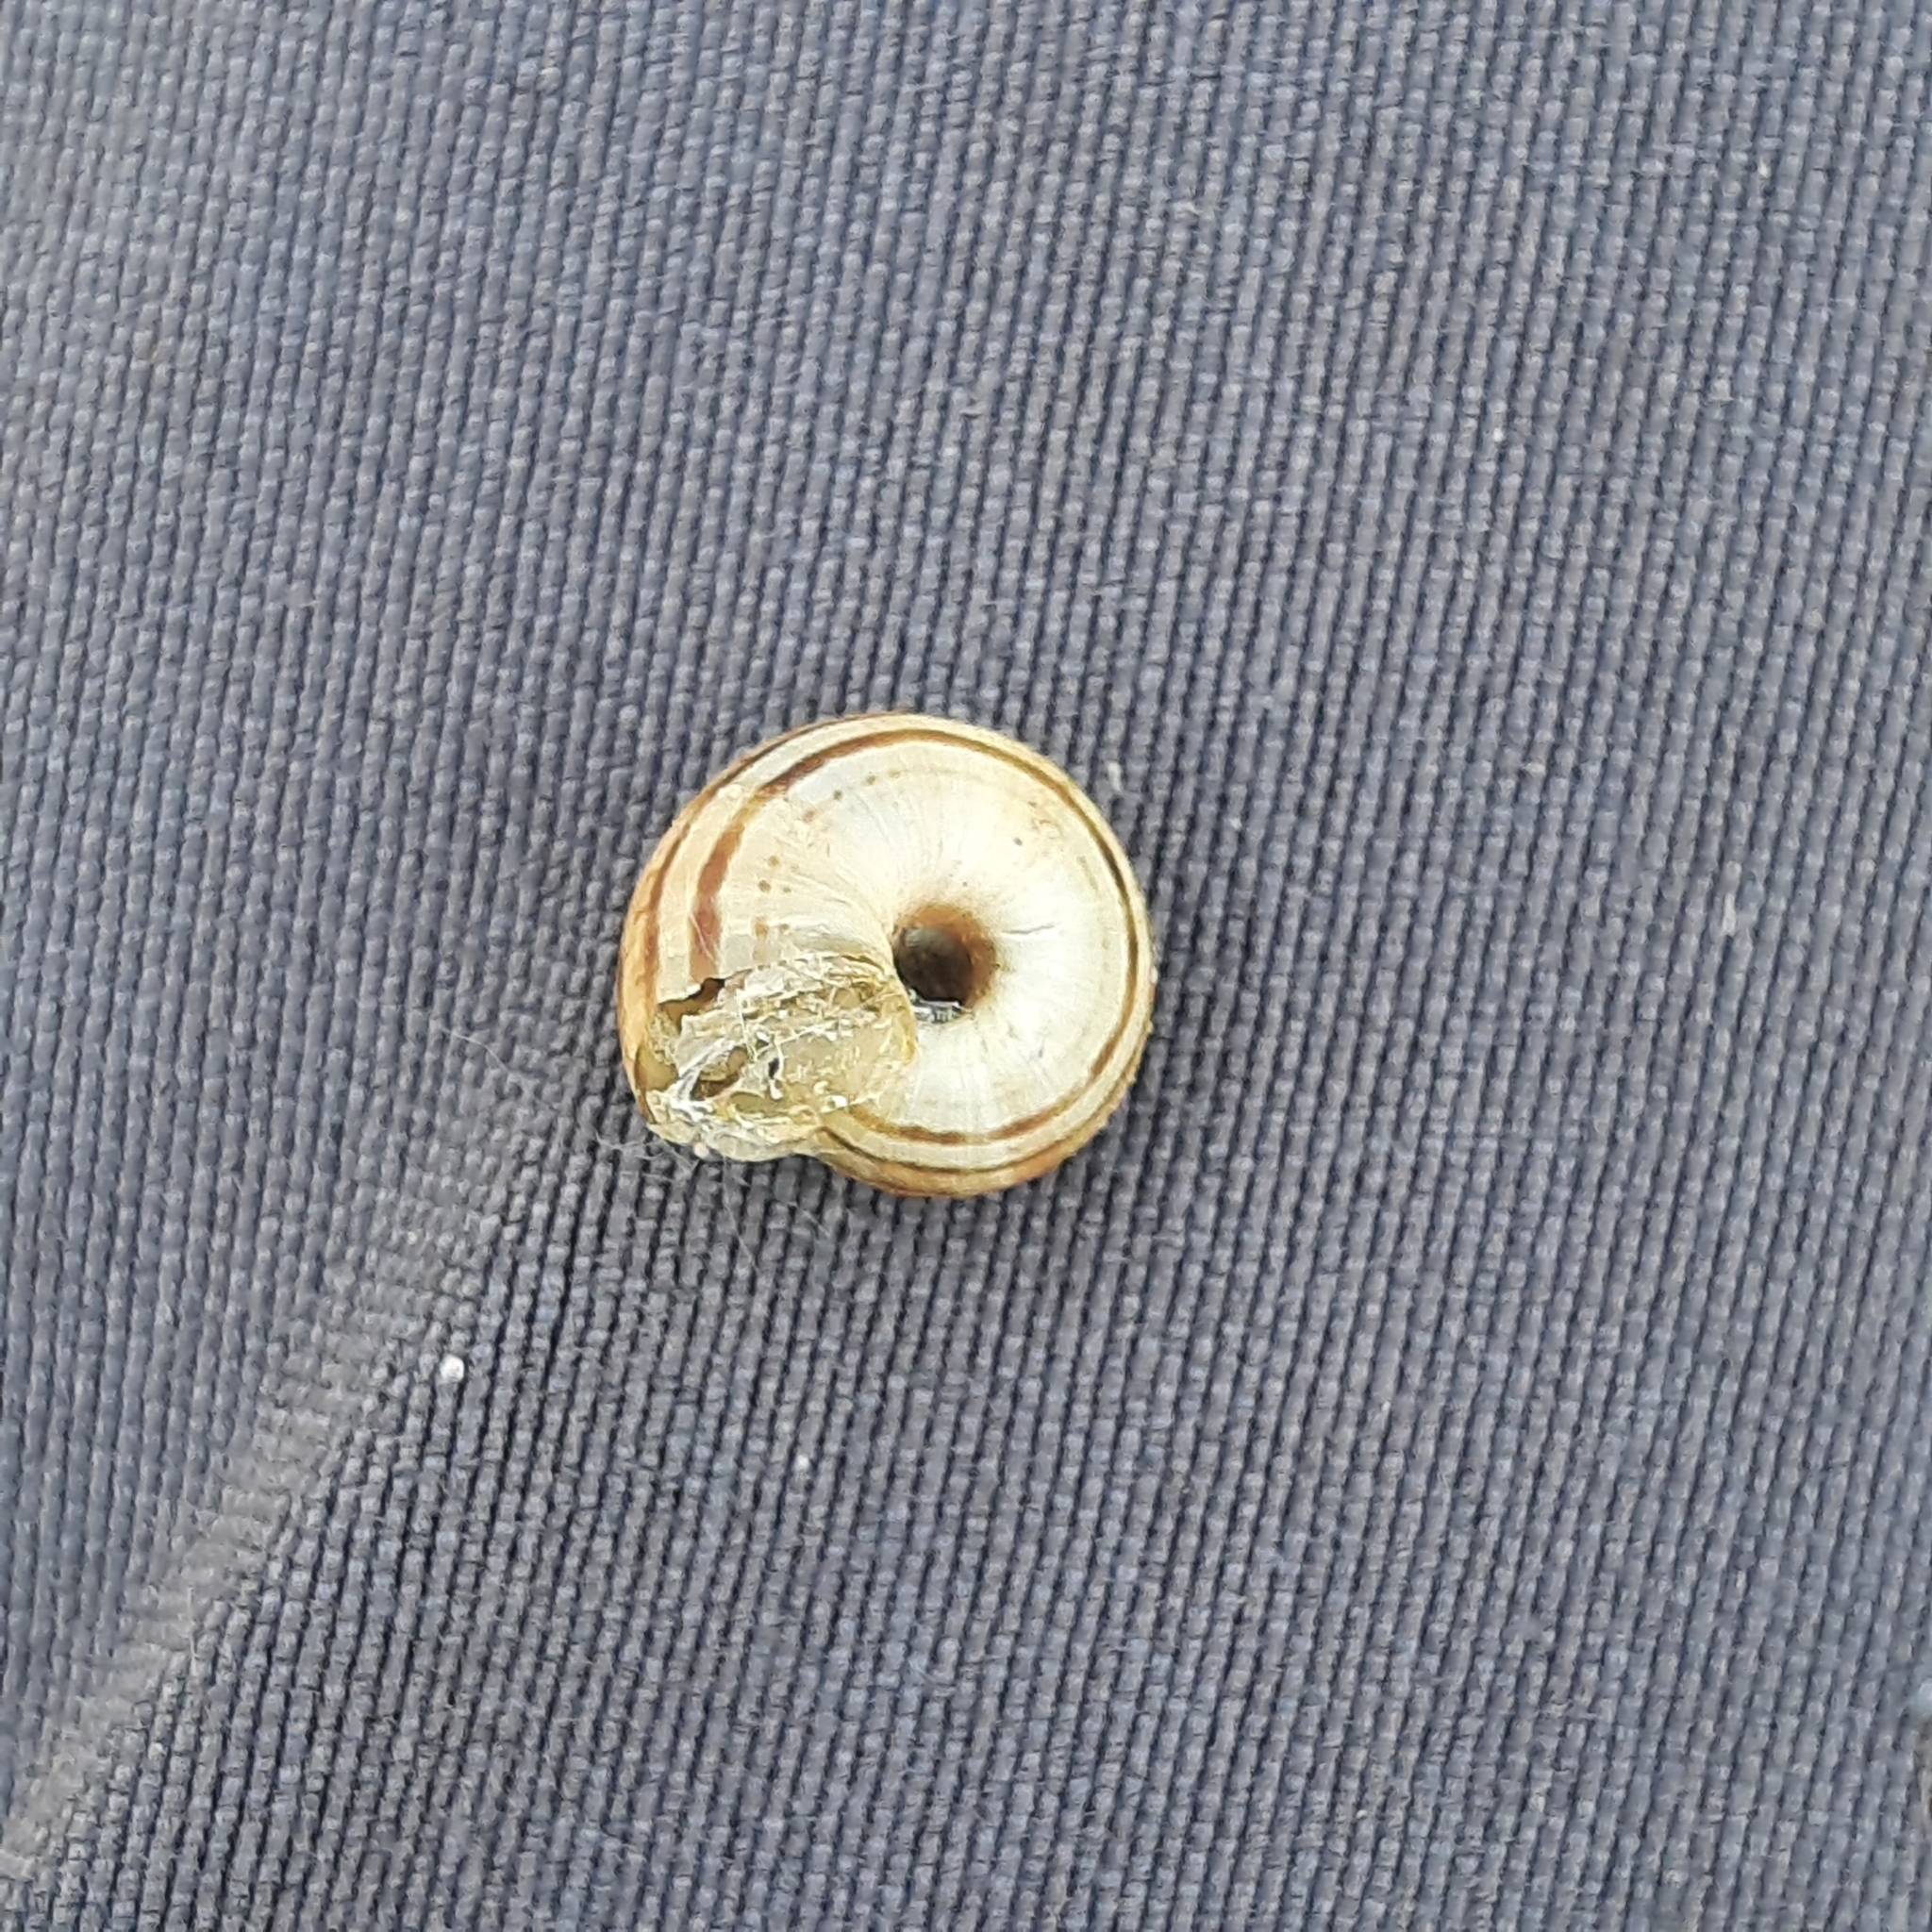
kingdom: Animalia
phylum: Mollusca
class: Gastropoda
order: Stylommatophora
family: Geomitridae
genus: Xerolenta
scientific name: Xerolenta obvia
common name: White heath snail
